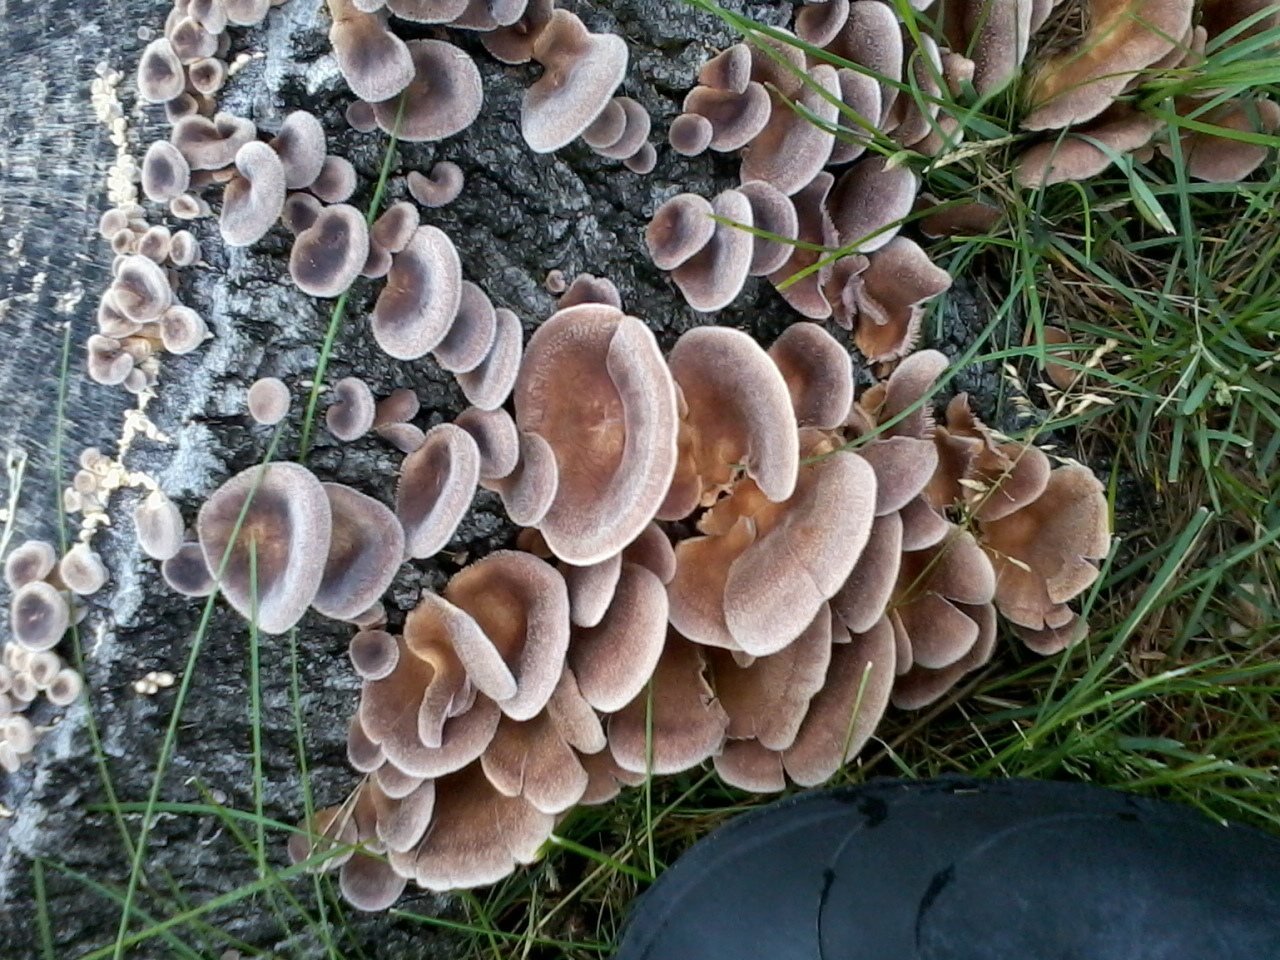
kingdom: Fungi
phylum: Basidiomycota
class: Agaricomycetes
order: Polyporales
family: Panaceae
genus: Panus
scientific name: Panus neostrigosus
